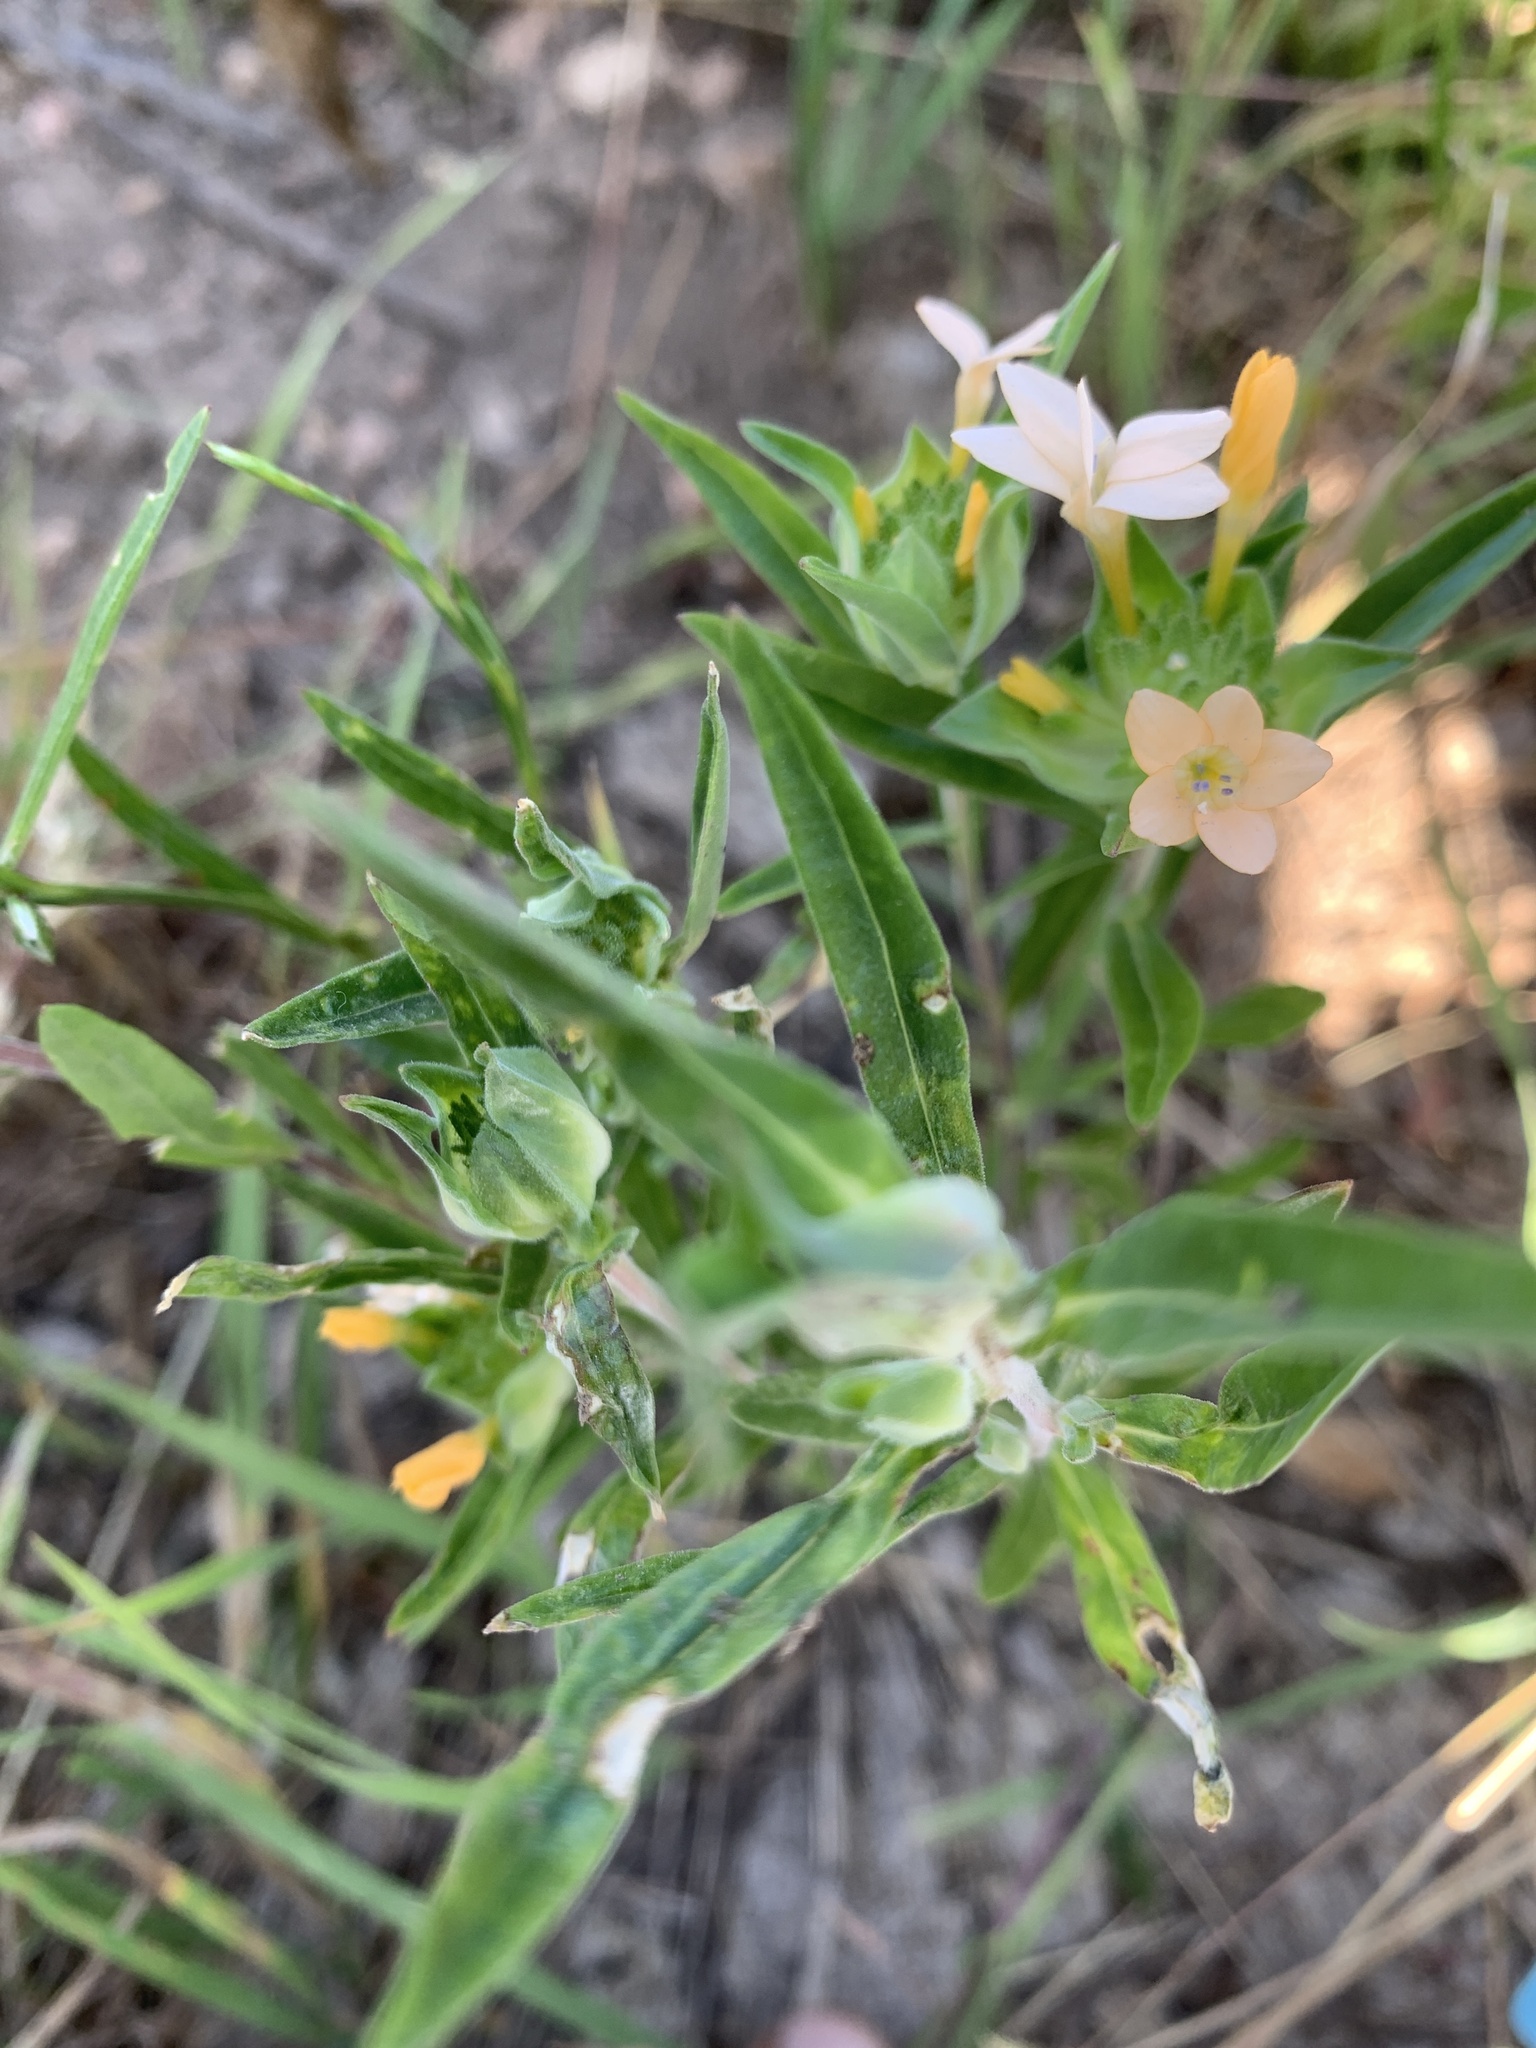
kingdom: Plantae
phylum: Tracheophyta
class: Magnoliopsida
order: Ericales
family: Polemoniaceae
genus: Collomia
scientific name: Collomia grandiflora
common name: California strawflower
